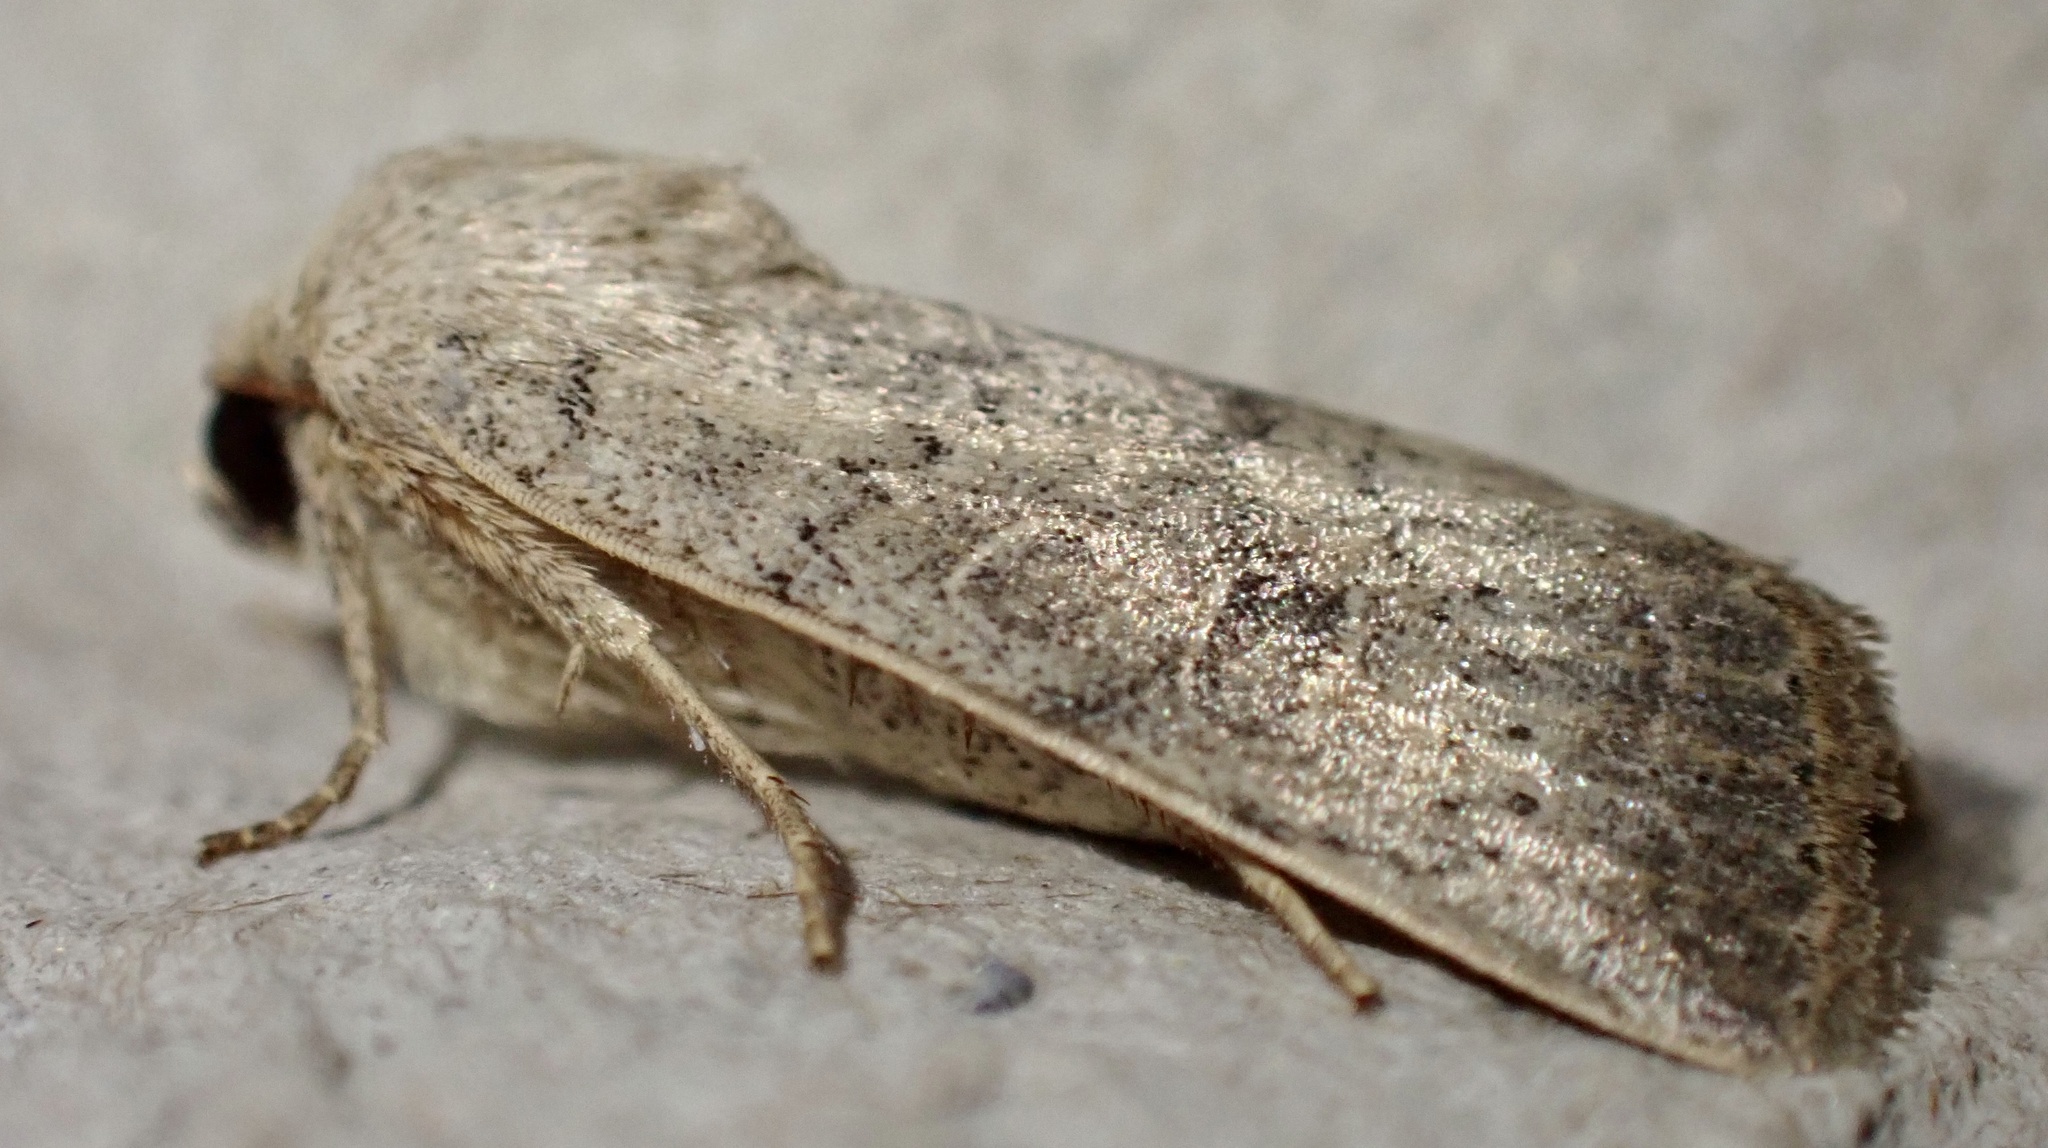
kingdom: Animalia
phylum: Arthropoda
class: Insecta
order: Lepidoptera
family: Noctuidae
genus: Hoplodrina
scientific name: Hoplodrina ambigua
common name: Vine's rustic
